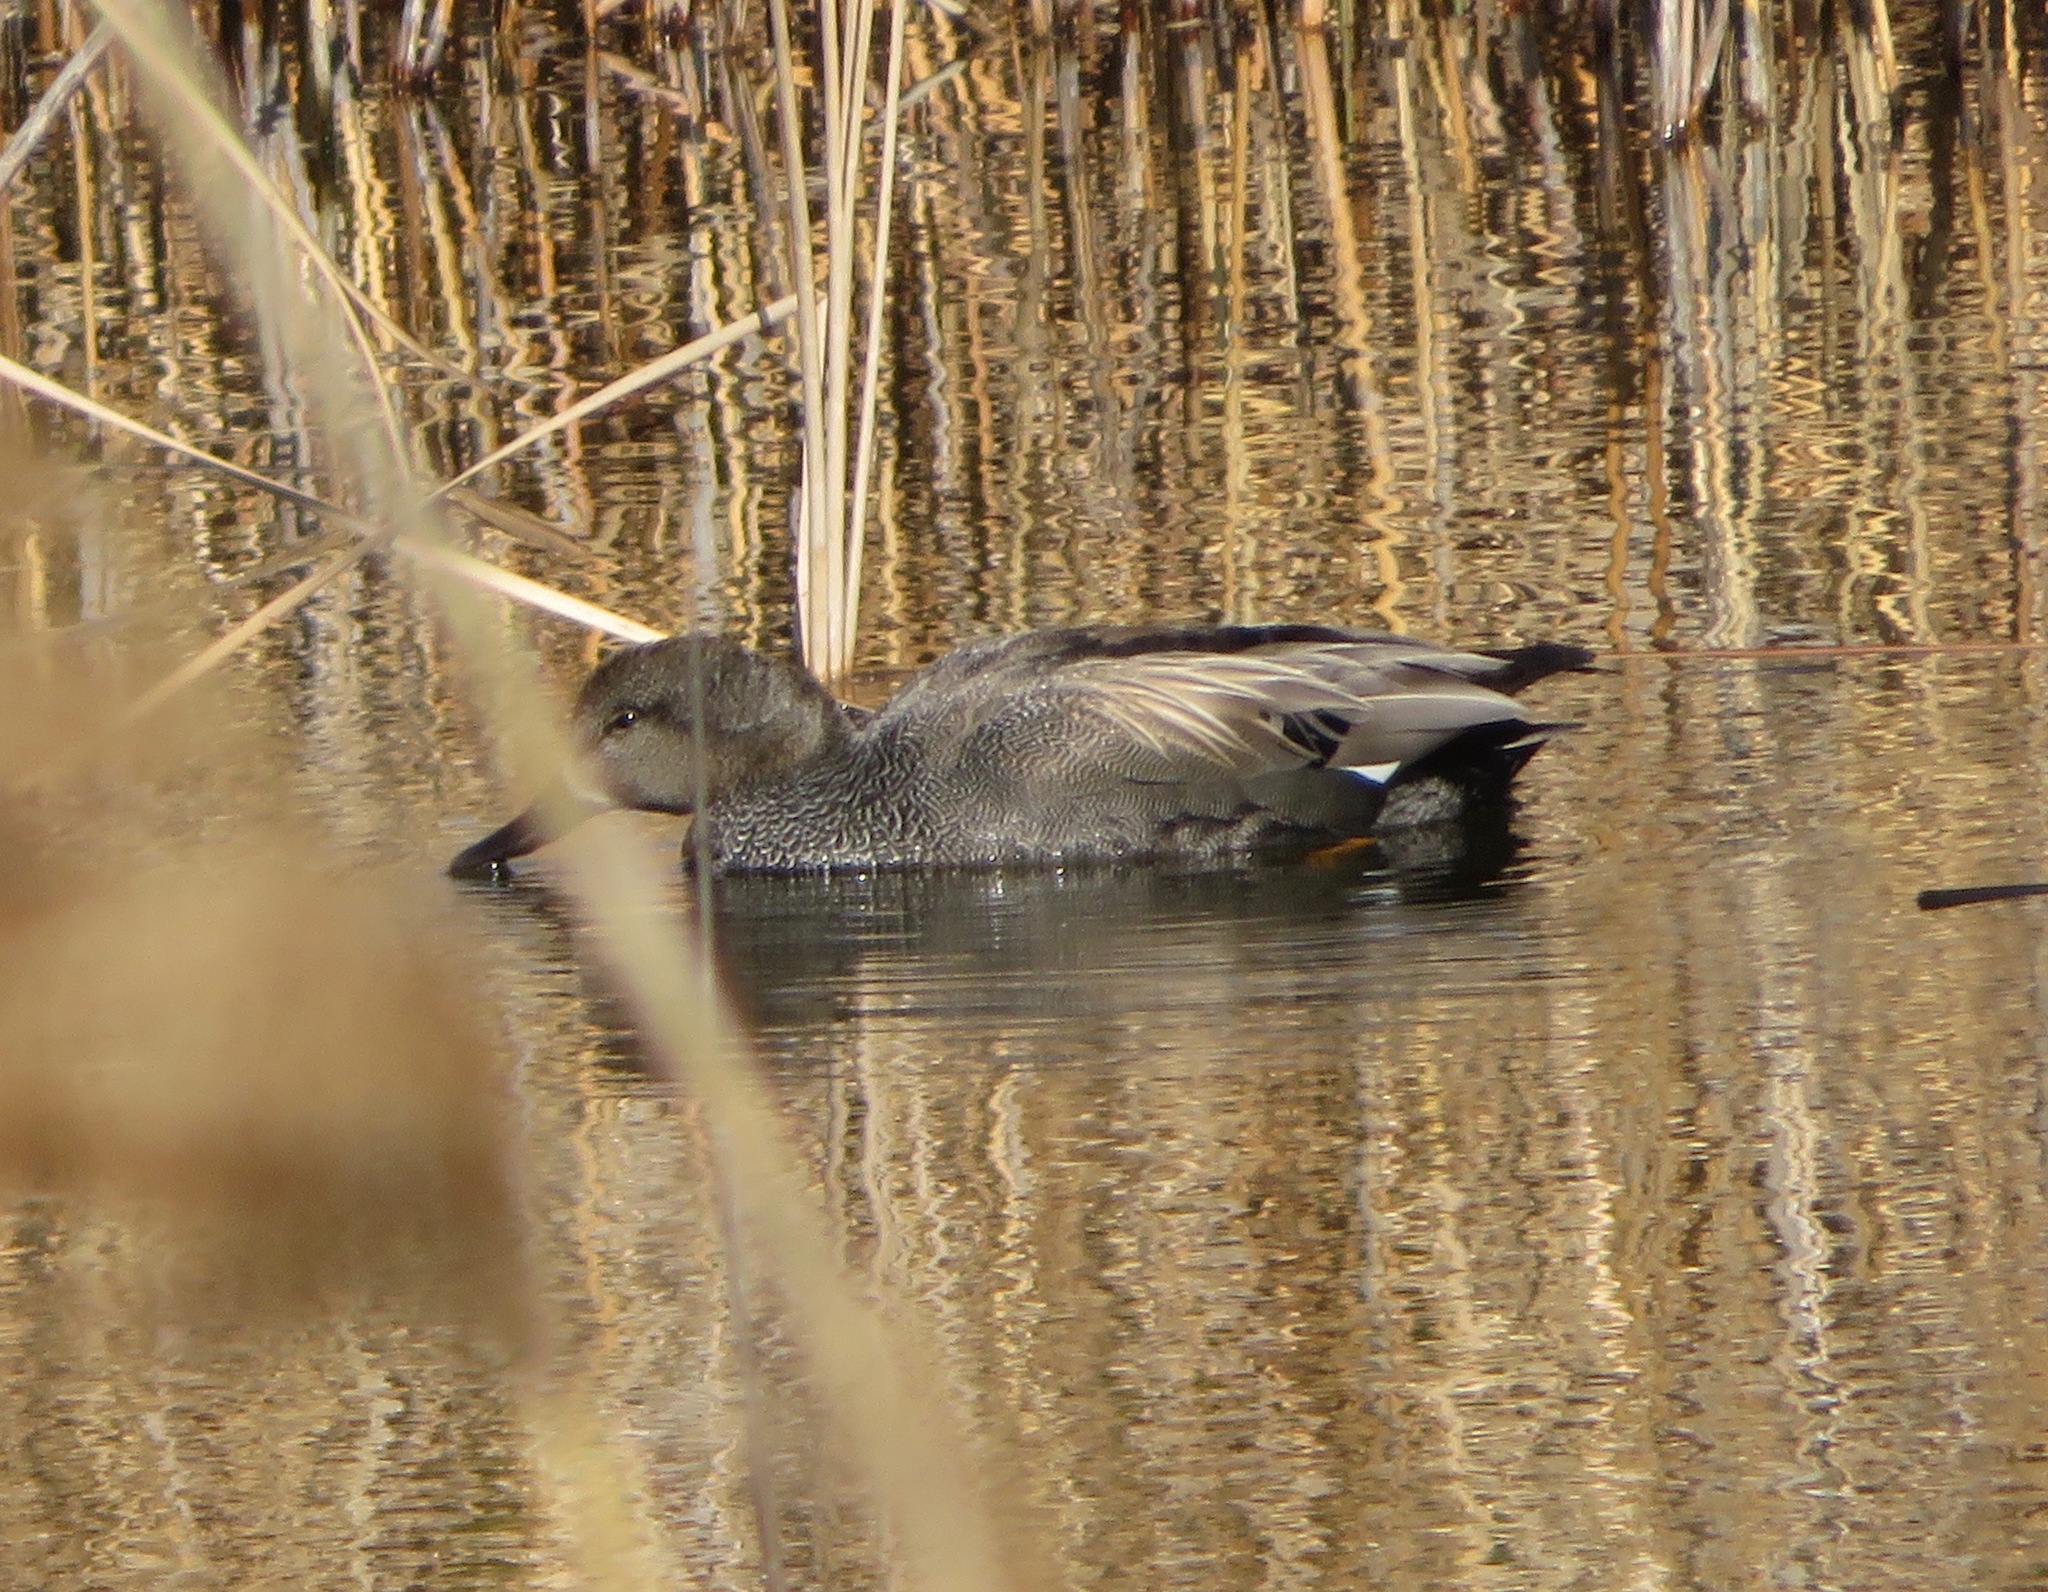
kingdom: Animalia
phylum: Chordata
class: Aves
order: Anseriformes
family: Anatidae
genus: Mareca
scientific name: Mareca strepera
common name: Gadwall
